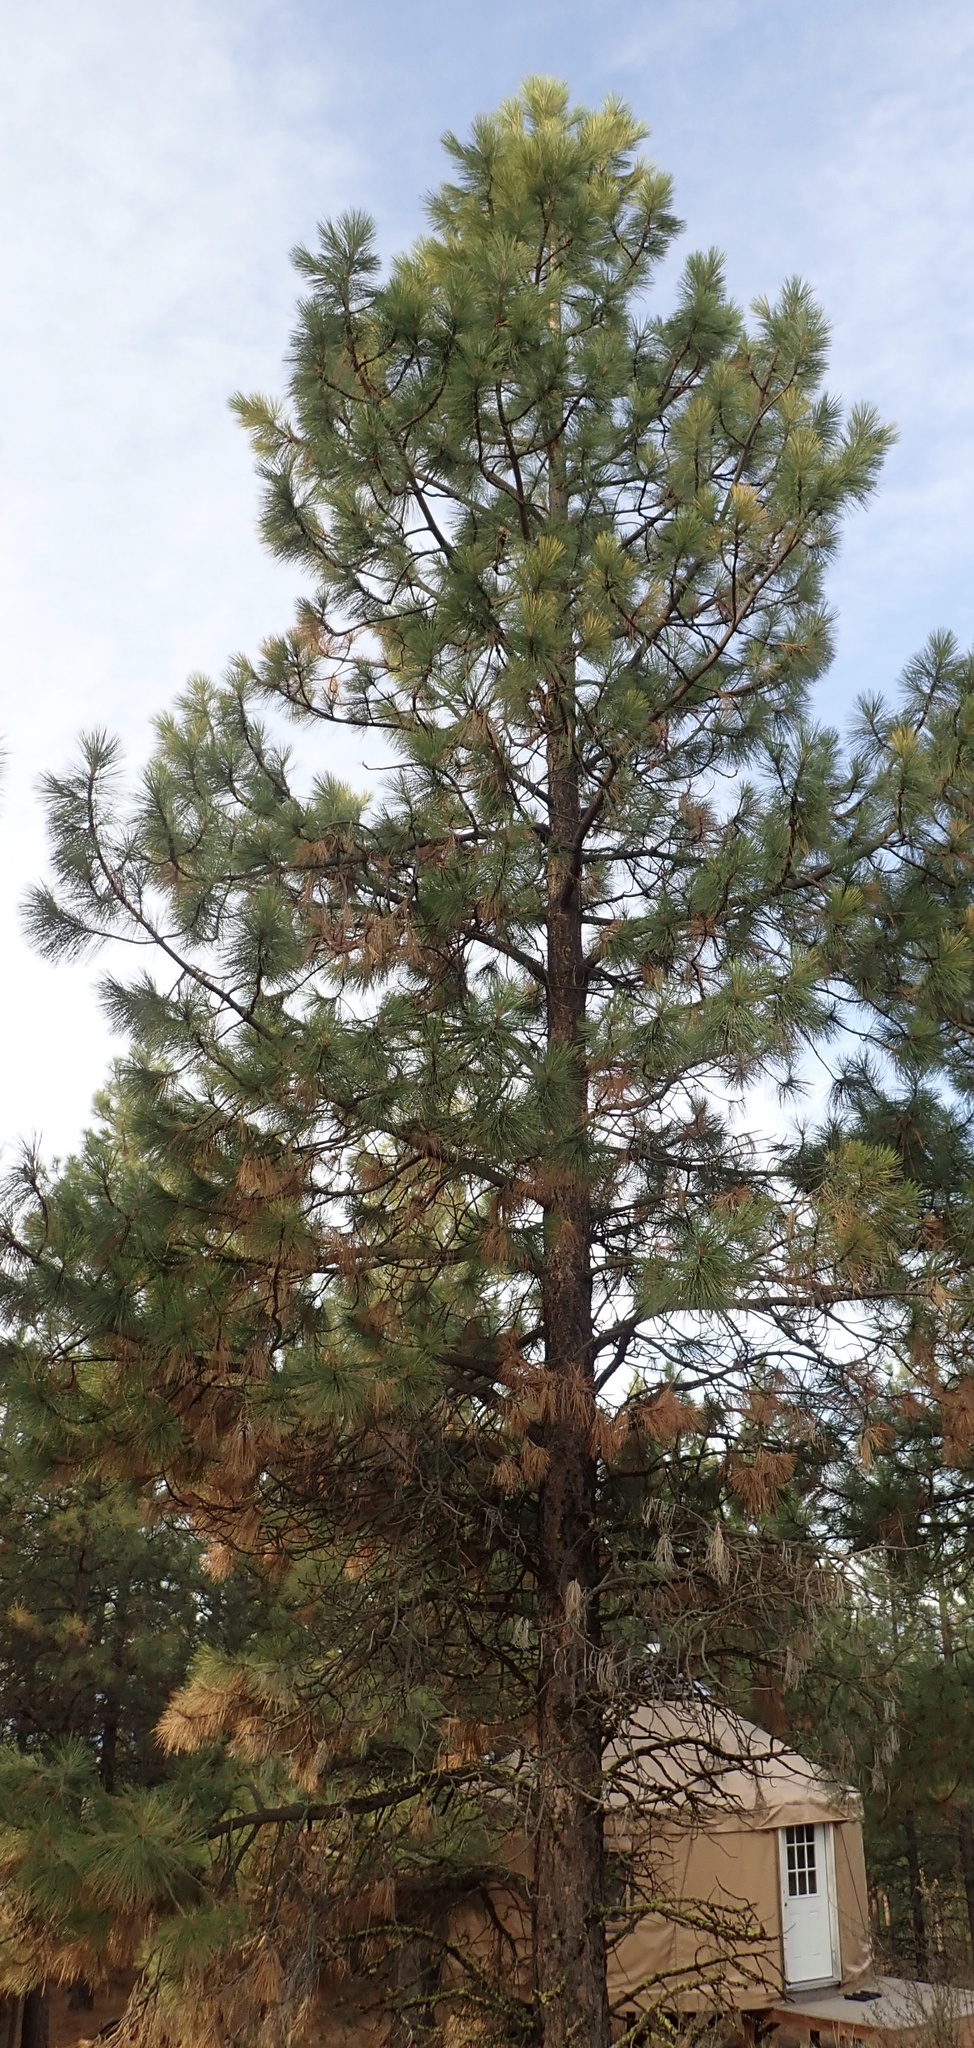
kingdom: Plantae
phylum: Tracheophyta
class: Pinopsida
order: Pinales
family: Pinaceae
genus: Pinus
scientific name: Pinus ponderosa
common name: Western yellow-pine
